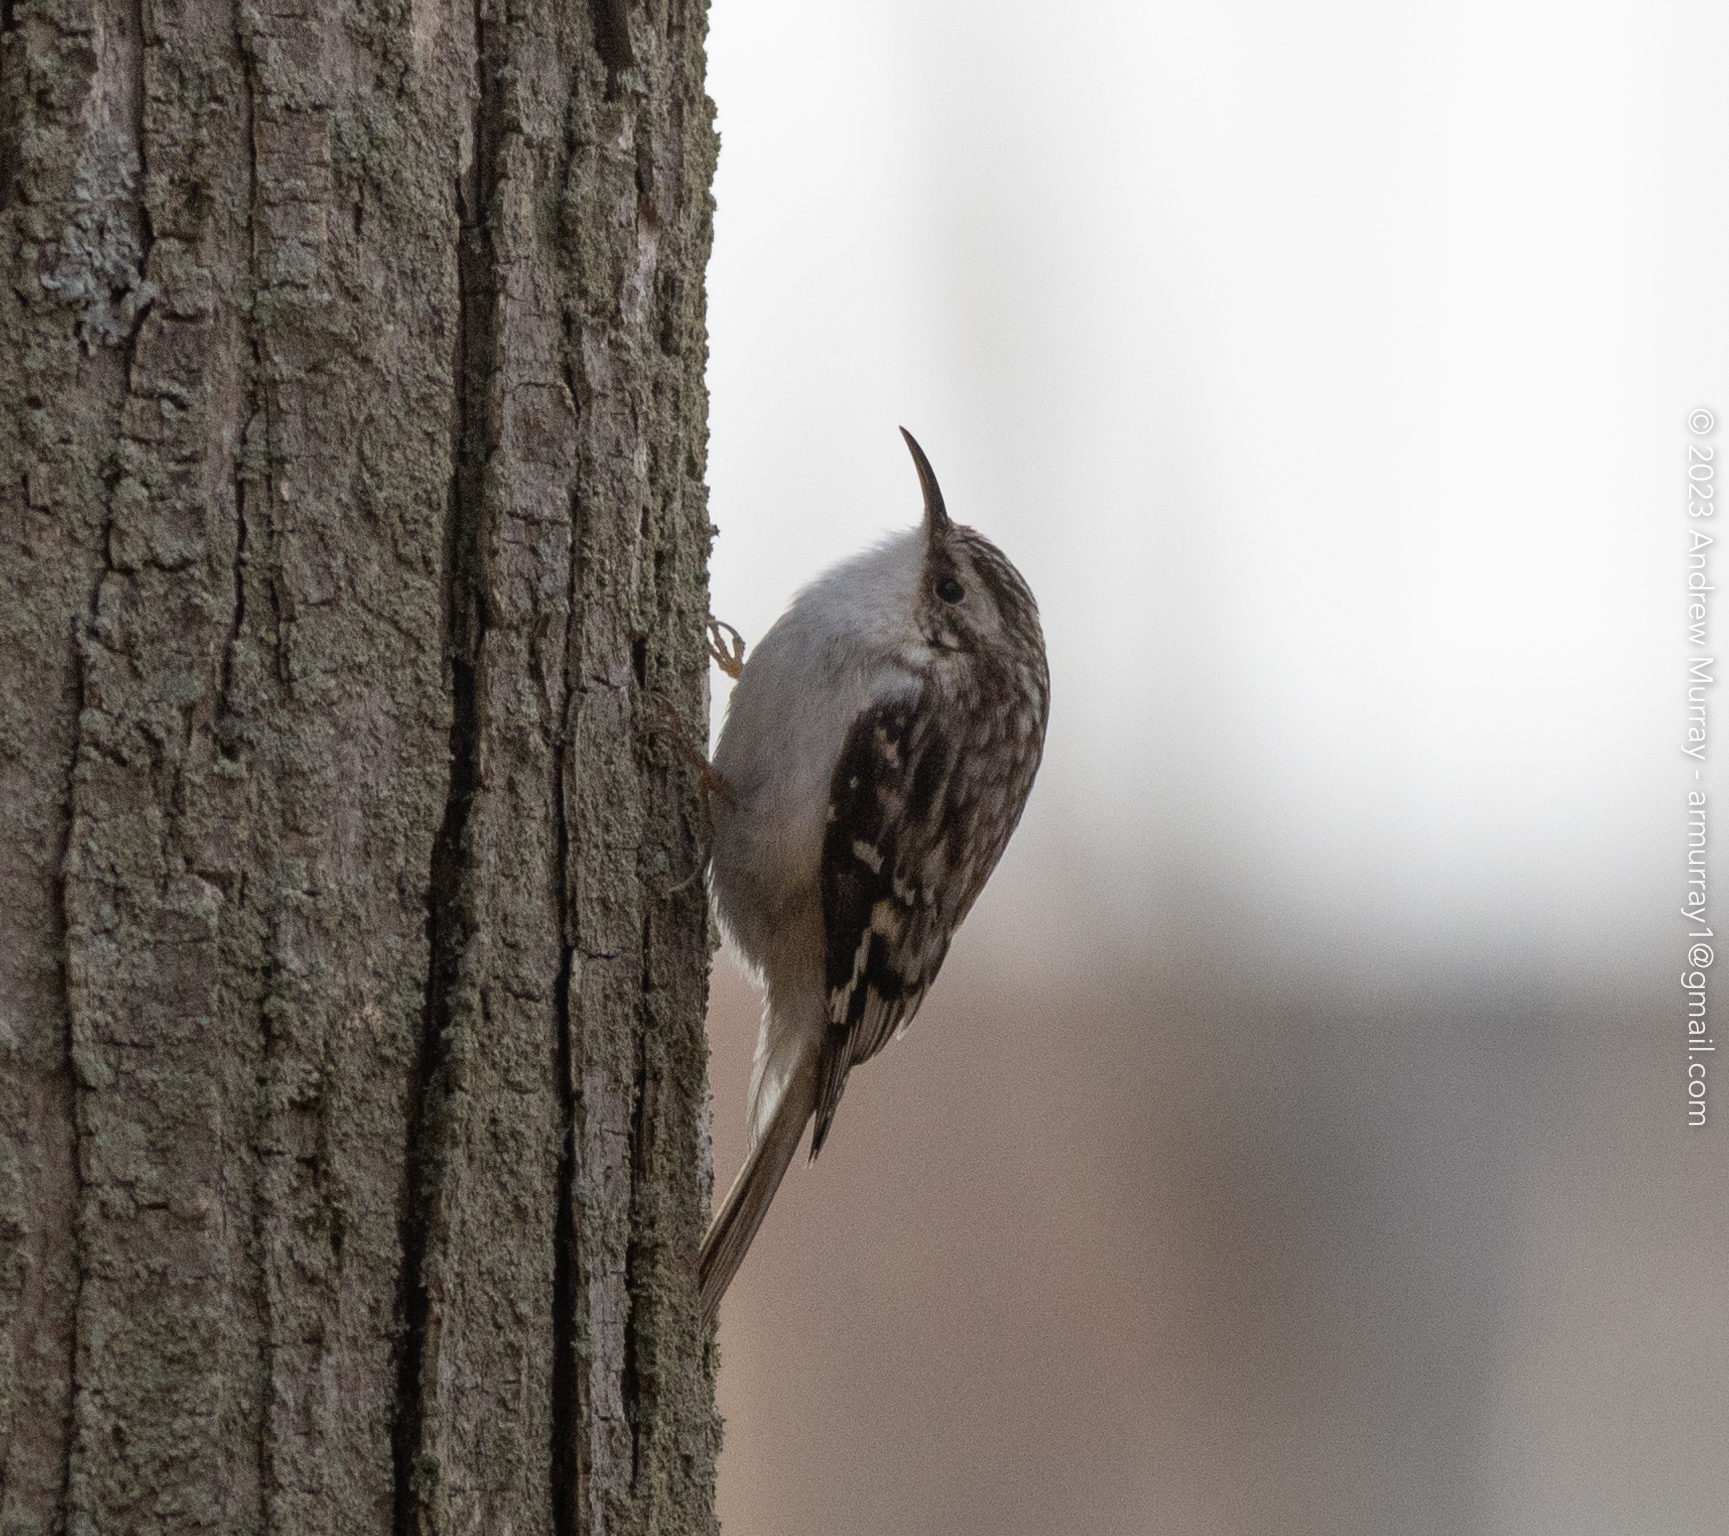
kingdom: Animalia
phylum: Chordata
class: Aves
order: Passeriformes
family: Certhiidae
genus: Certhia
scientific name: Certhia americana
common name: Brown creeper
